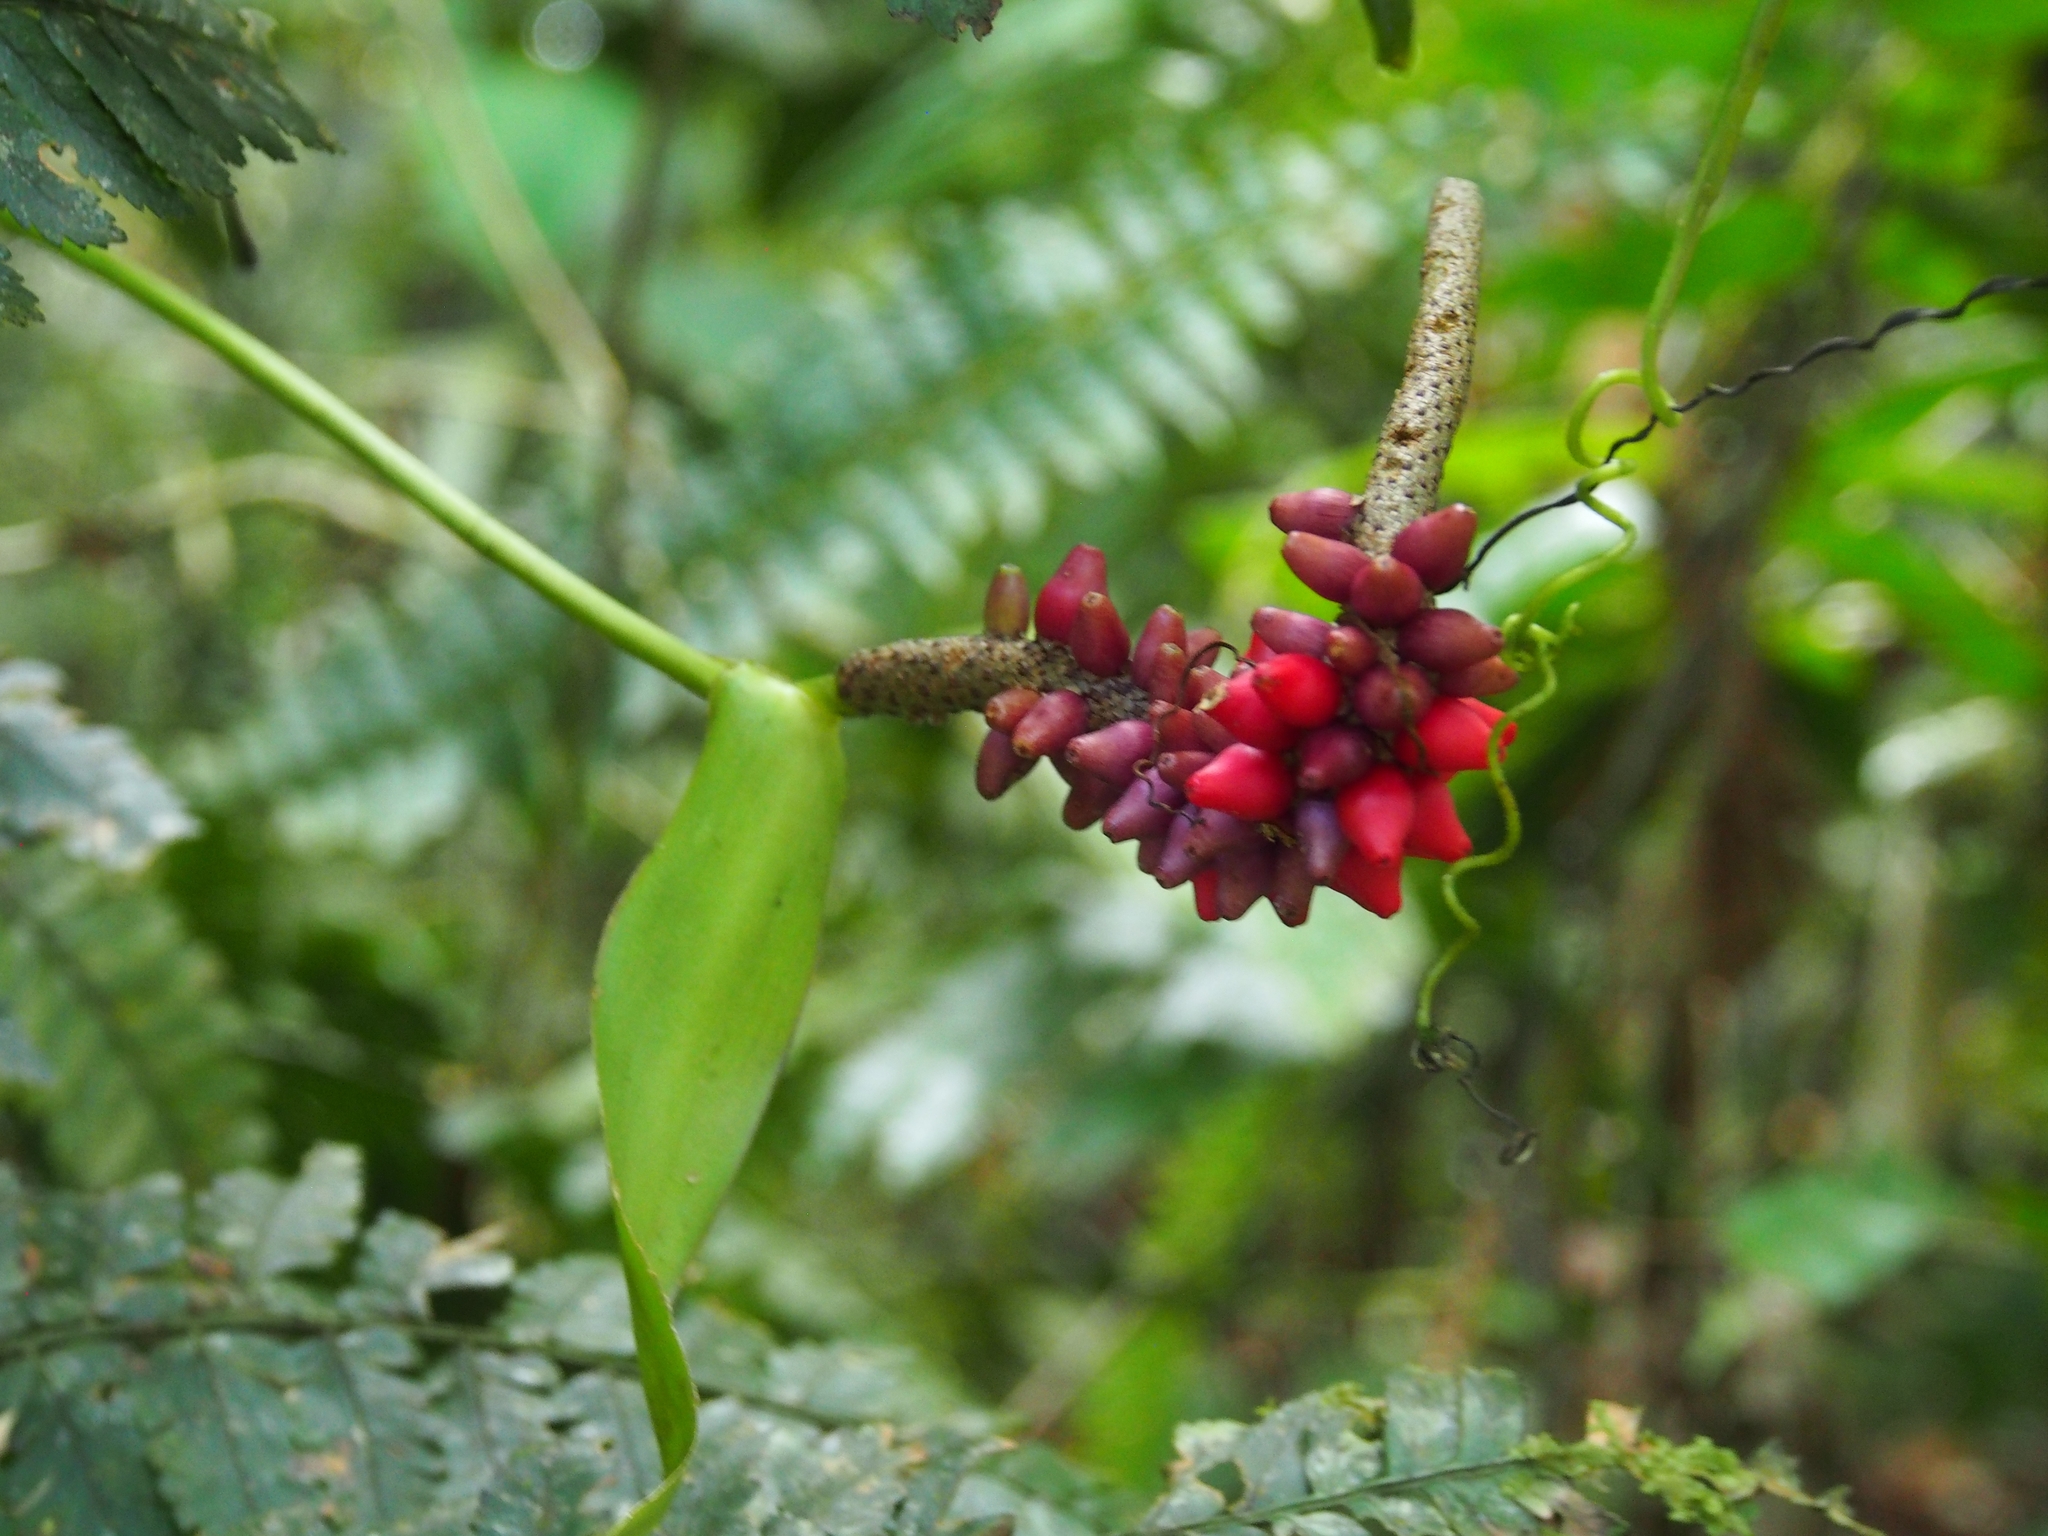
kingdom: Plantae
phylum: Tracheophyta
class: Liliopsida
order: Alismatales
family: Araceae
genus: Anthurium
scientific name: Anthurium talamancae
